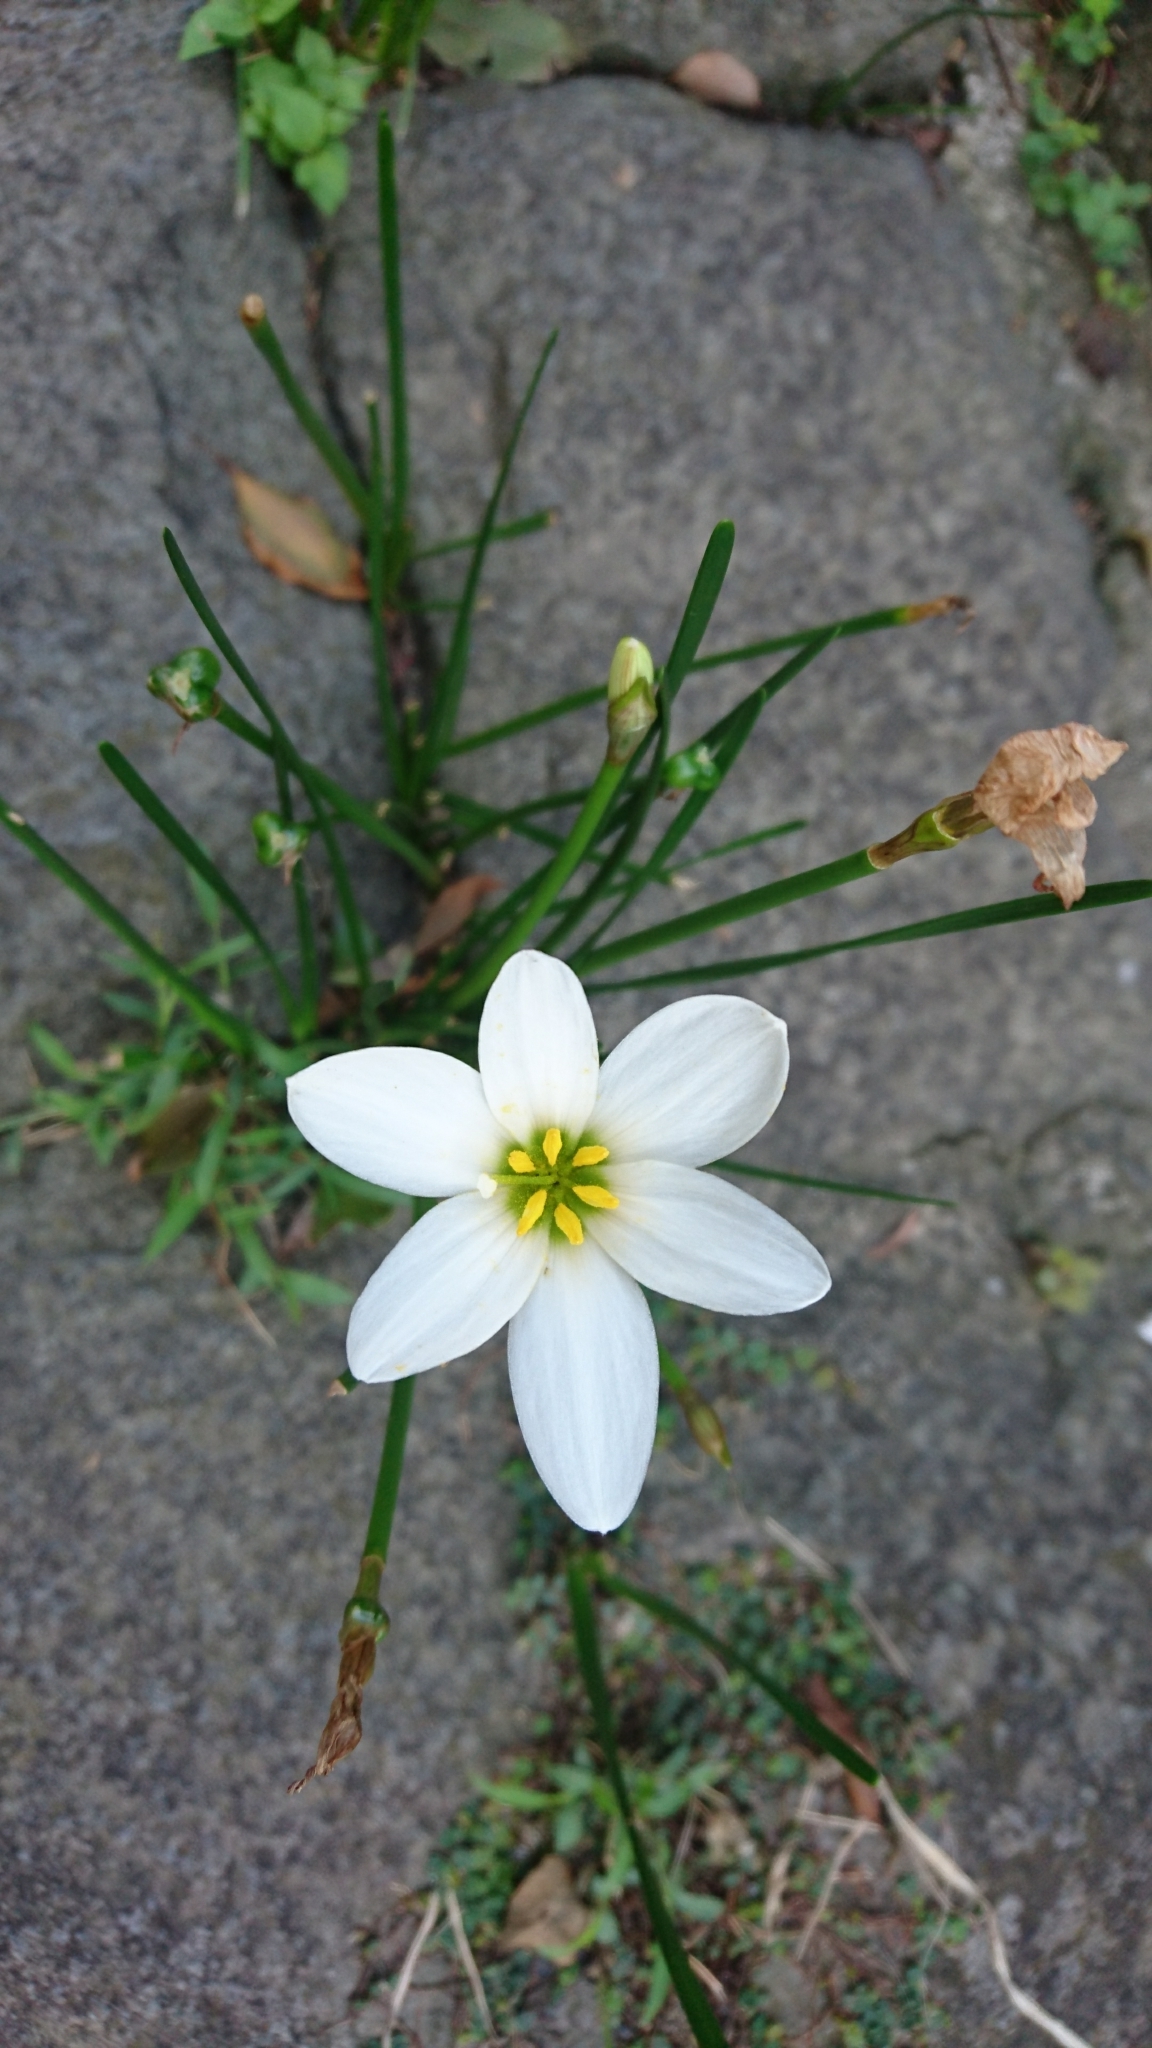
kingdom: Plantae
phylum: Tracheophyta
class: Liliopsida
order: Asparagales
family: Amaryllidaceae
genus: Zephyranthes
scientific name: Zephyranthes candida
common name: Autumn zephyrlily
